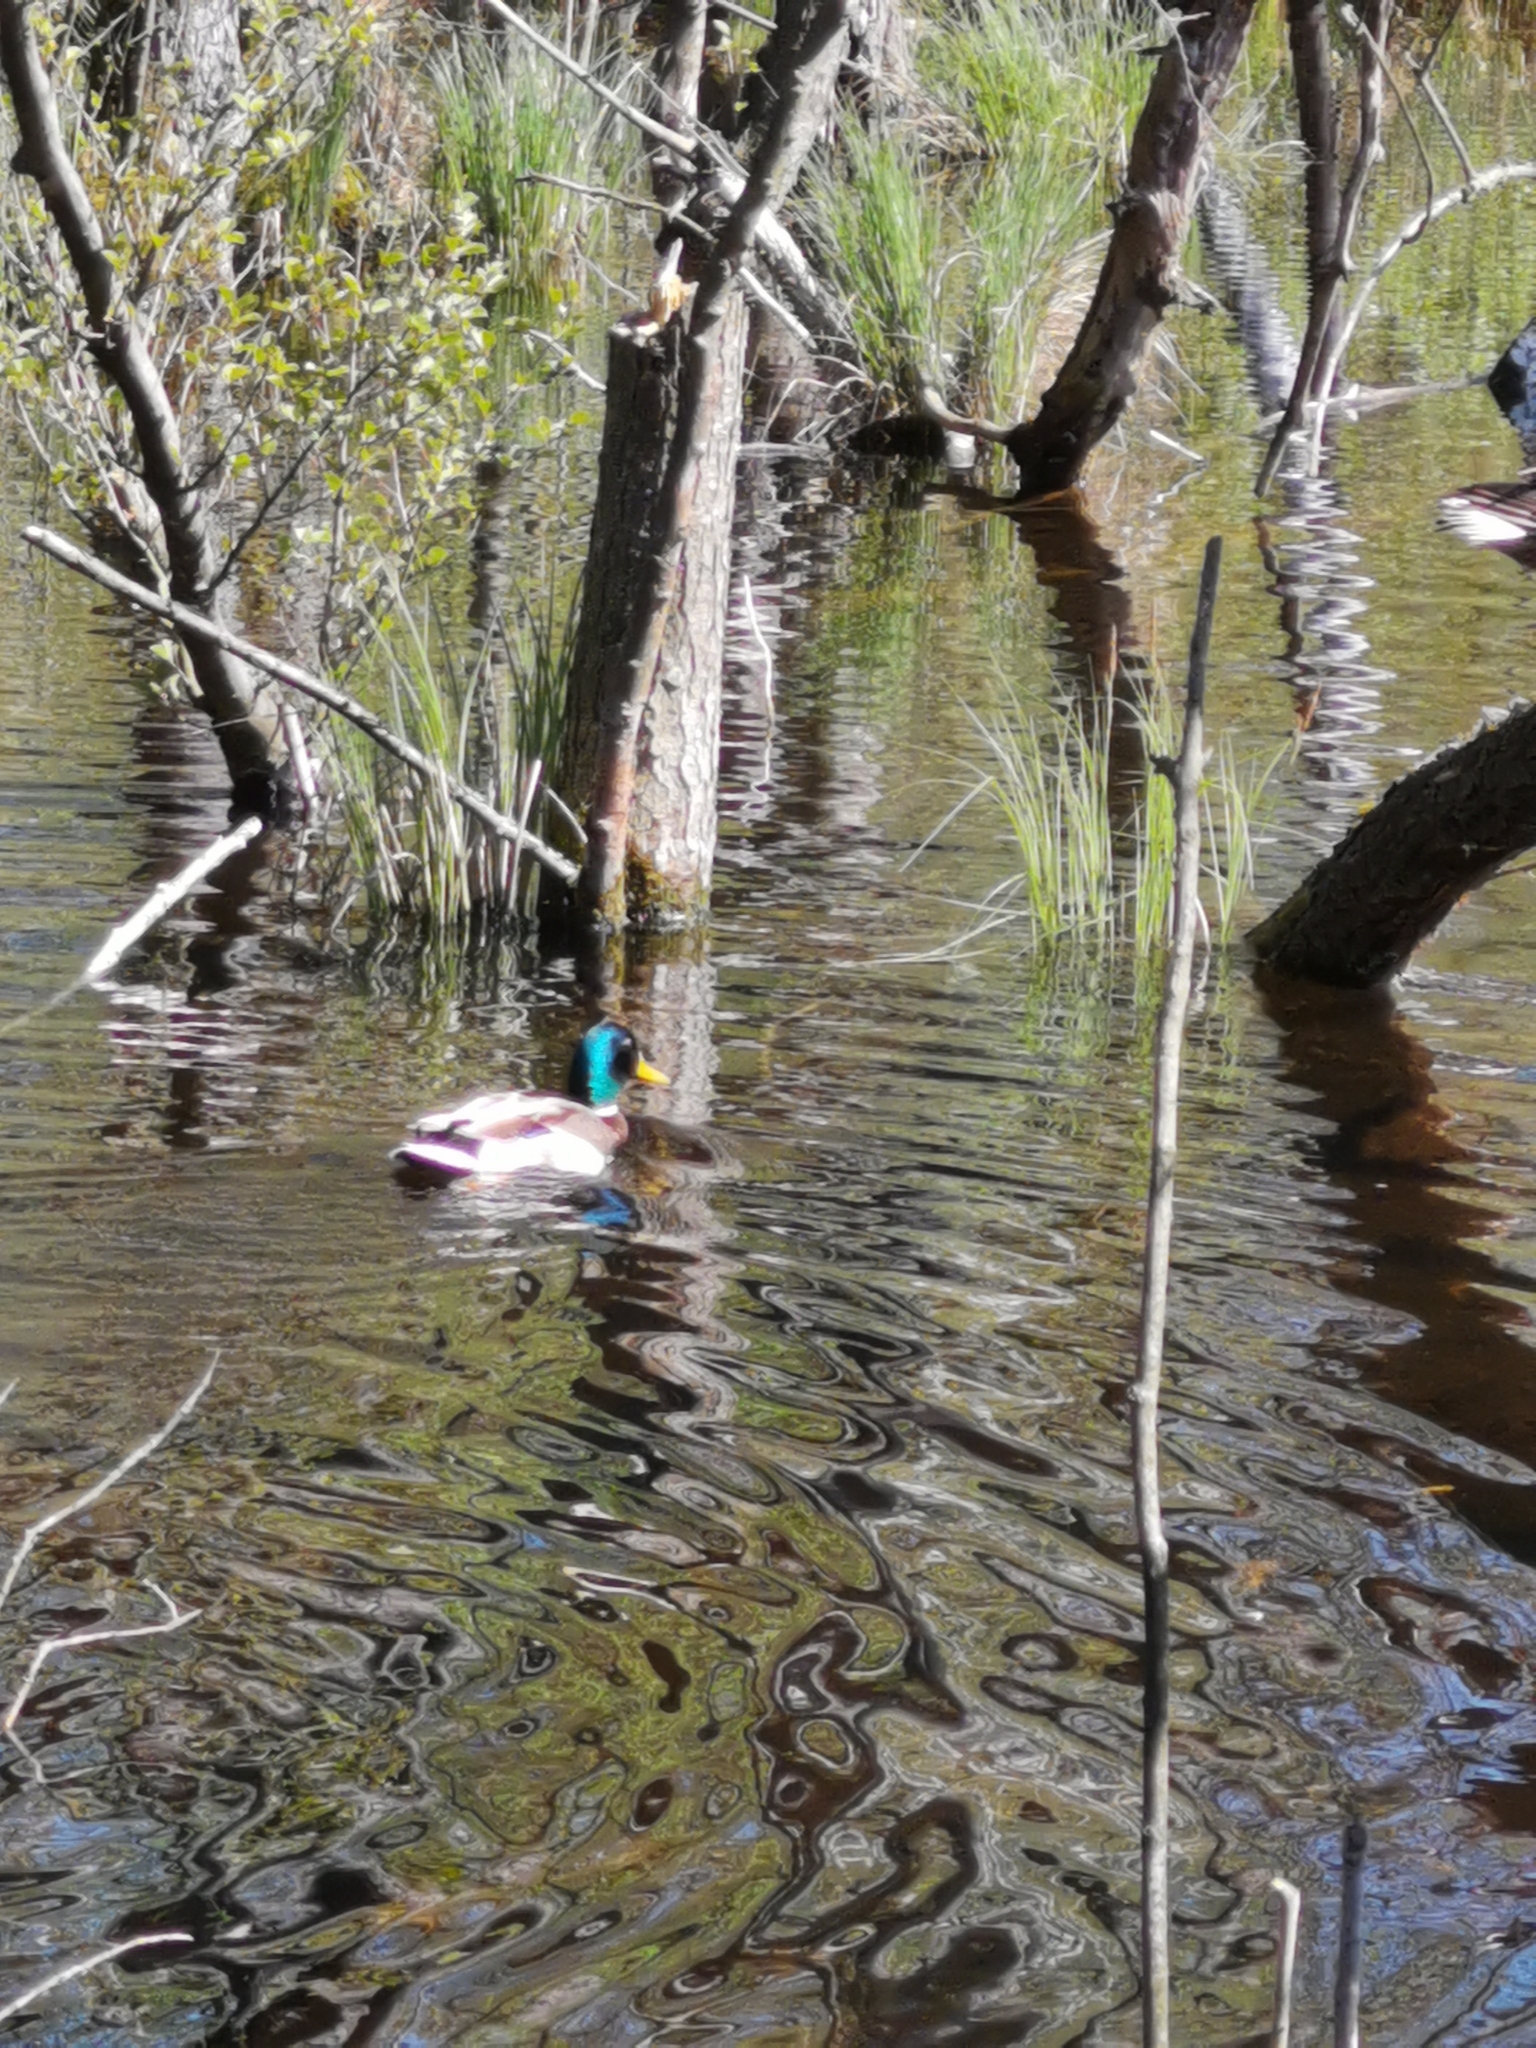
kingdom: Animalia
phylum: Chordata
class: Aves
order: Anseriformes
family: Anatidae
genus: Anas
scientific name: Anas platyrhynchos
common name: Mallard
